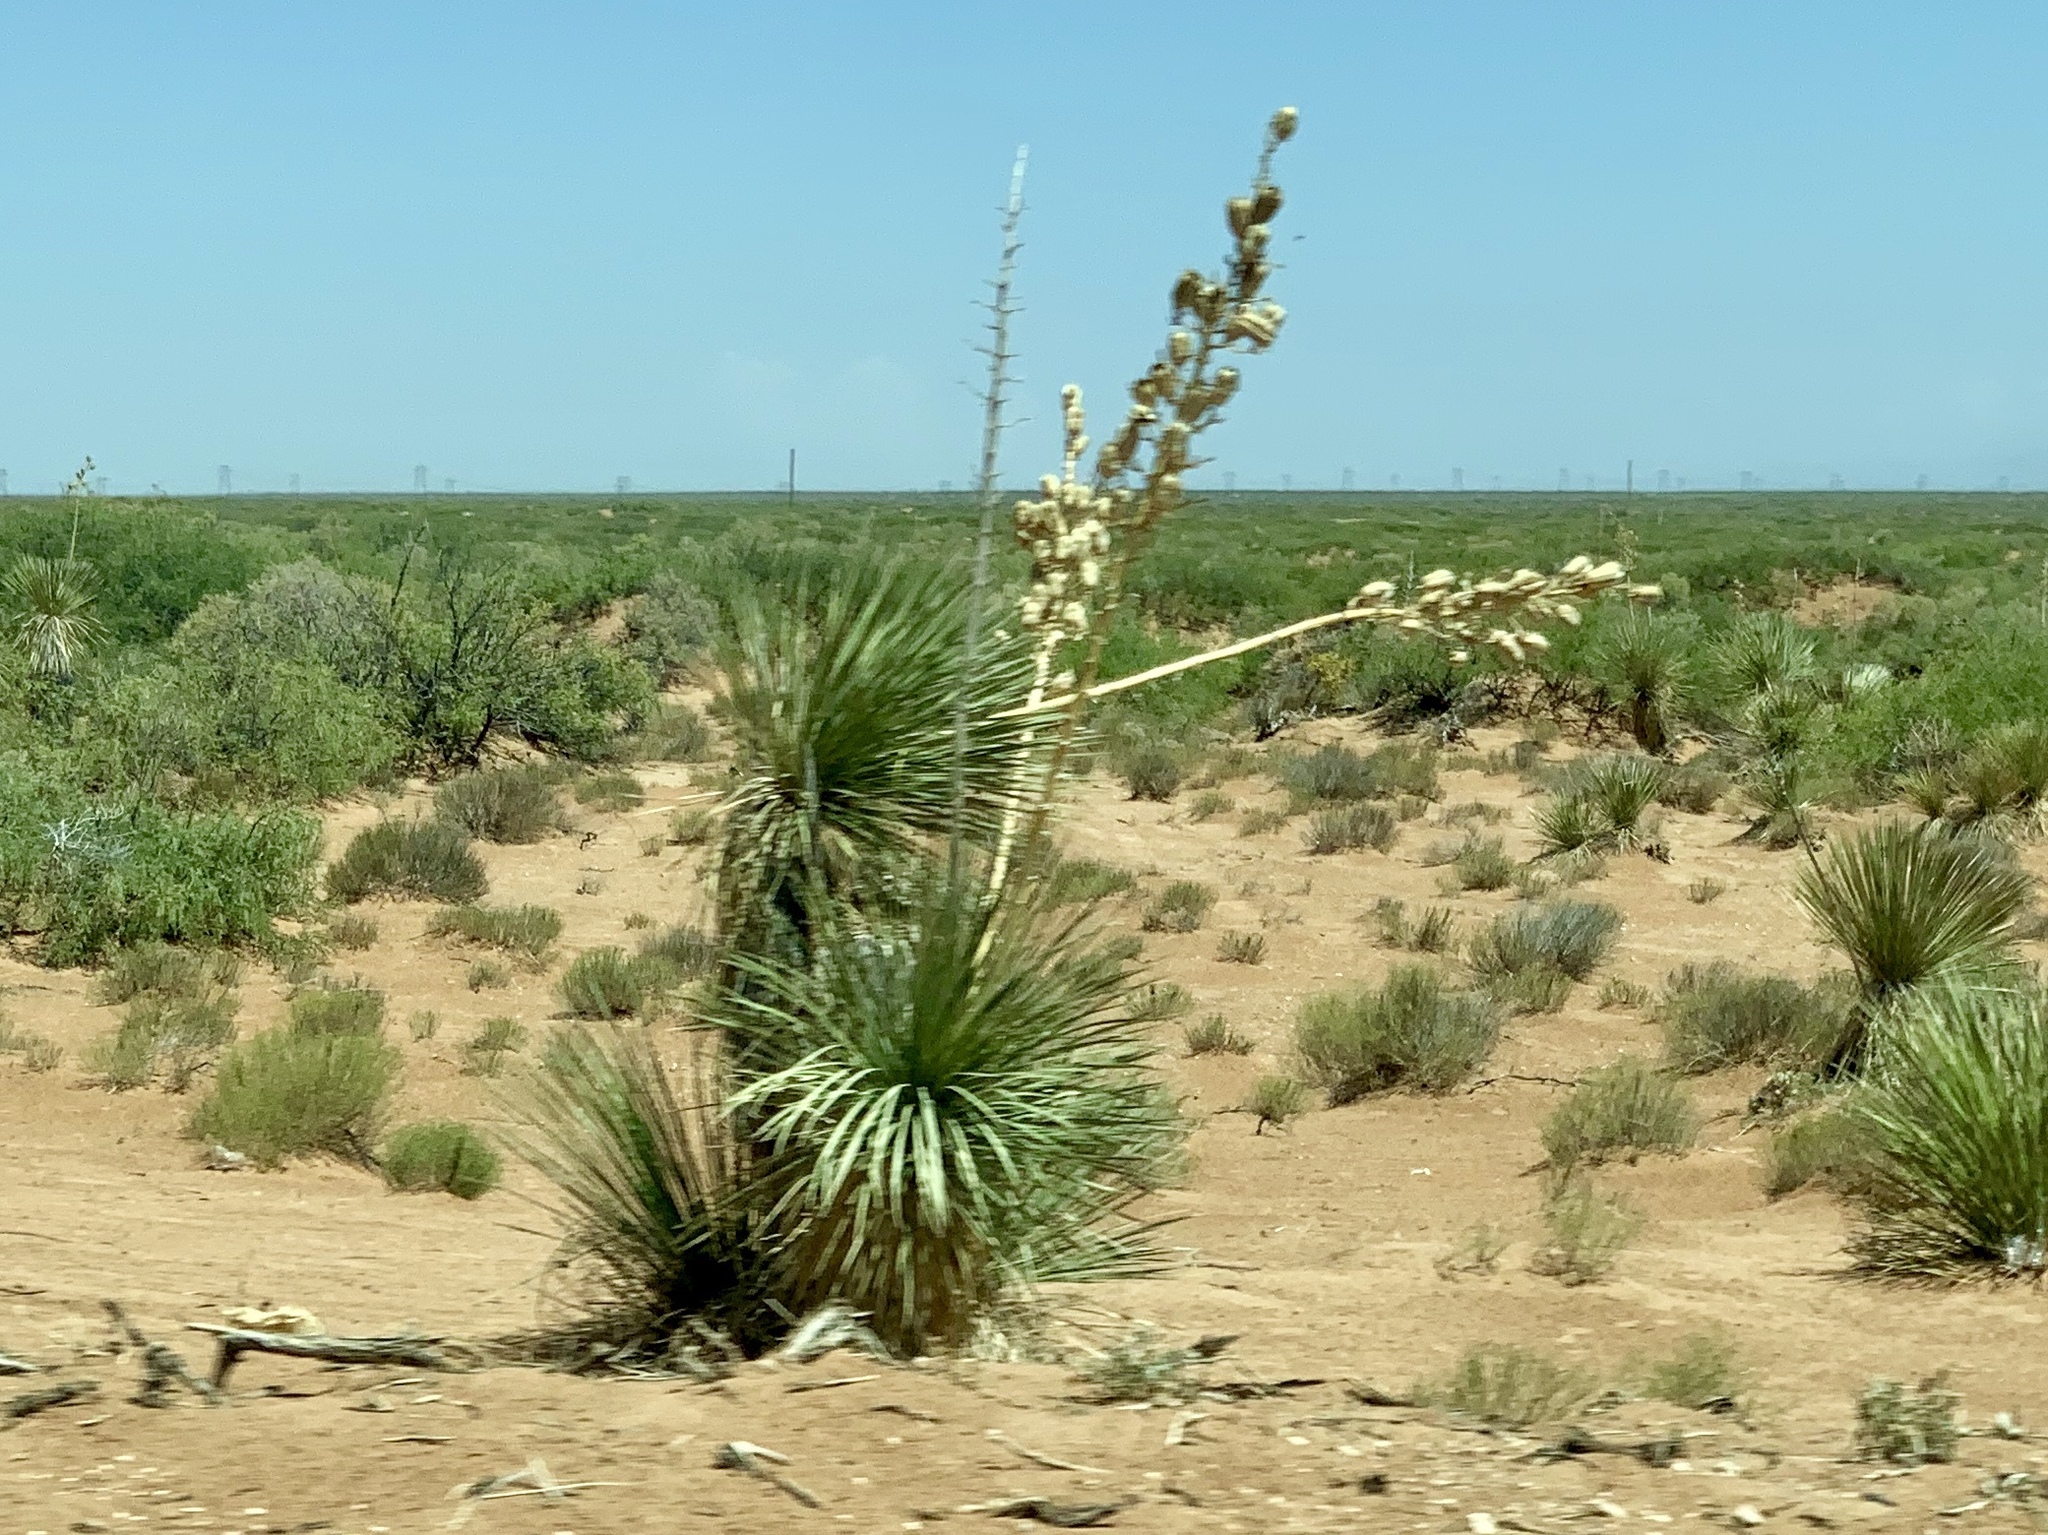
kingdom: Plantae
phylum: Tracheophyta
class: Liliopsida
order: Asparagales
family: Asparagaceae
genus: Yucca
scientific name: Yucca elata
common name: Palmella
